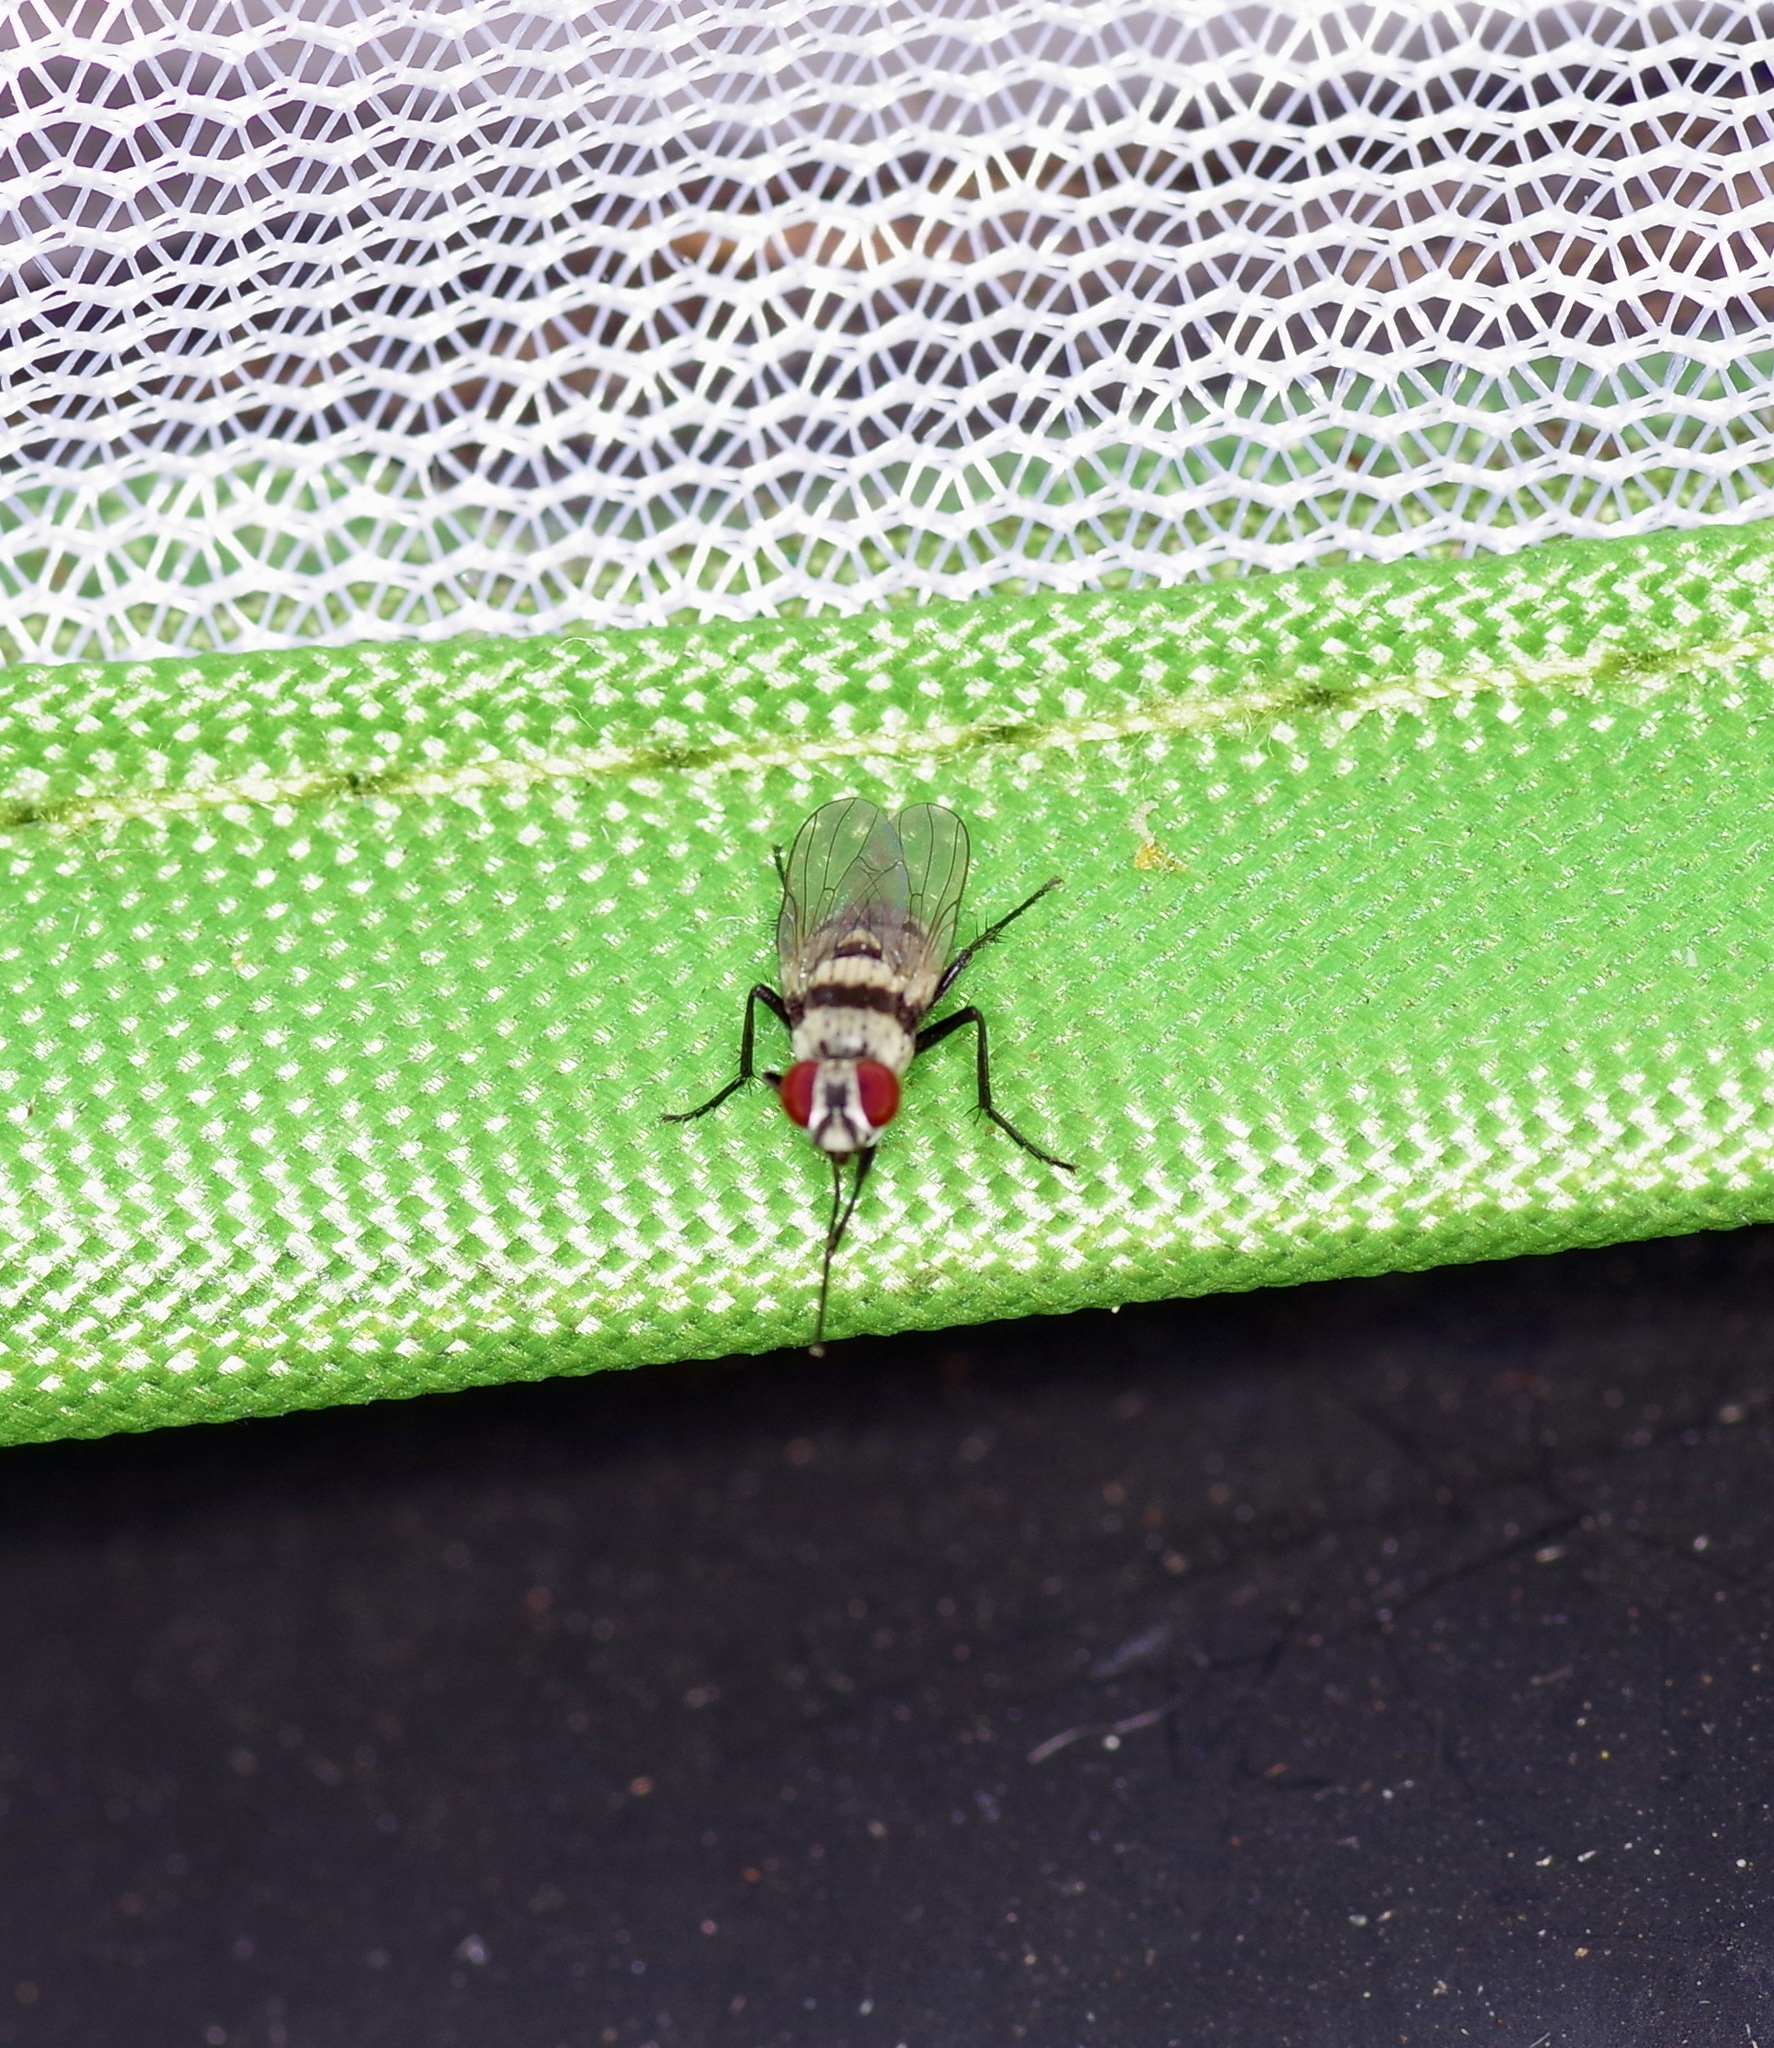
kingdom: Animalia
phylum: Arthropoda
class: Insecta
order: Diptera
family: Anthomyiidae
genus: Anthomyia
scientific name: Anthomyia illocata
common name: Fly
